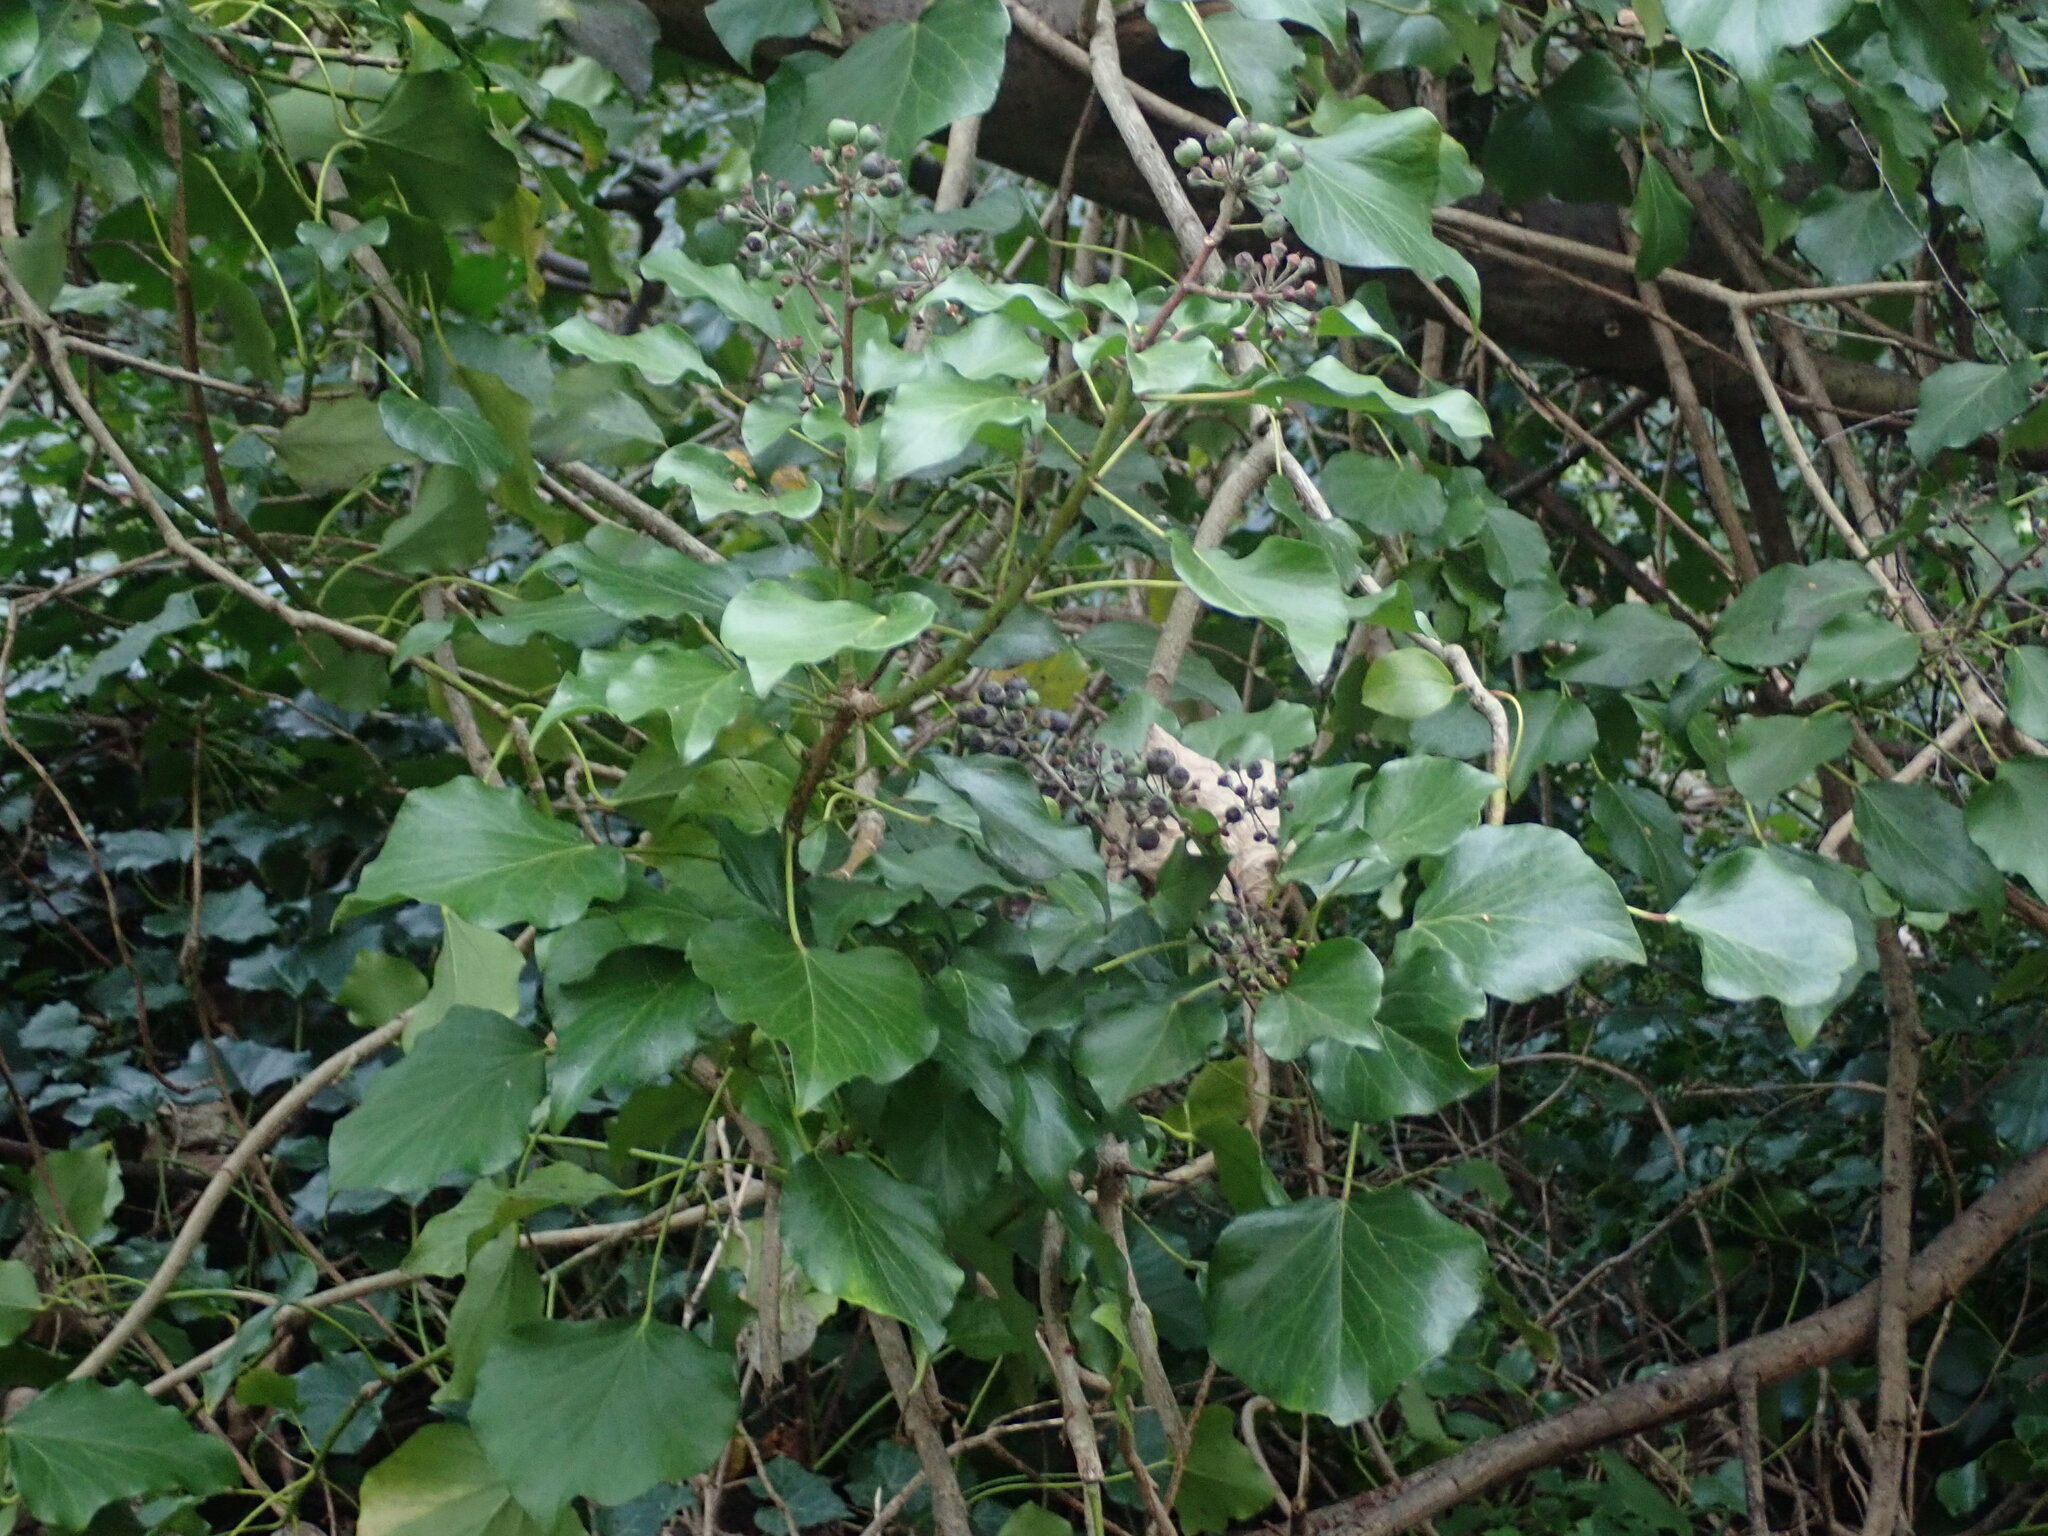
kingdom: Plantae
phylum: Tracheophyta
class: Magnoliopsida
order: Apiales
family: Araliaceae
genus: Hedera
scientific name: Hedera helix
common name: Ivy
